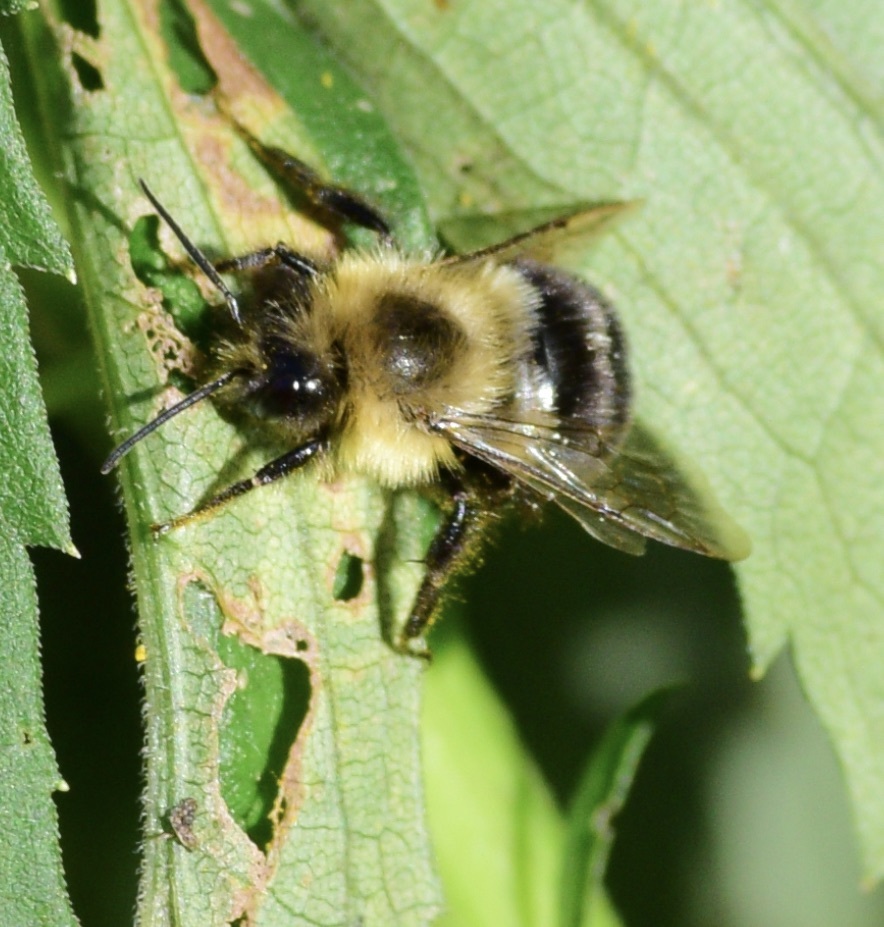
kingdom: Animalia
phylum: Arthropoda
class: Insecta
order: Hymenoptera
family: Apidae
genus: Bombus
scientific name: Bombus impatiens
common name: Common eastern bumble bee
